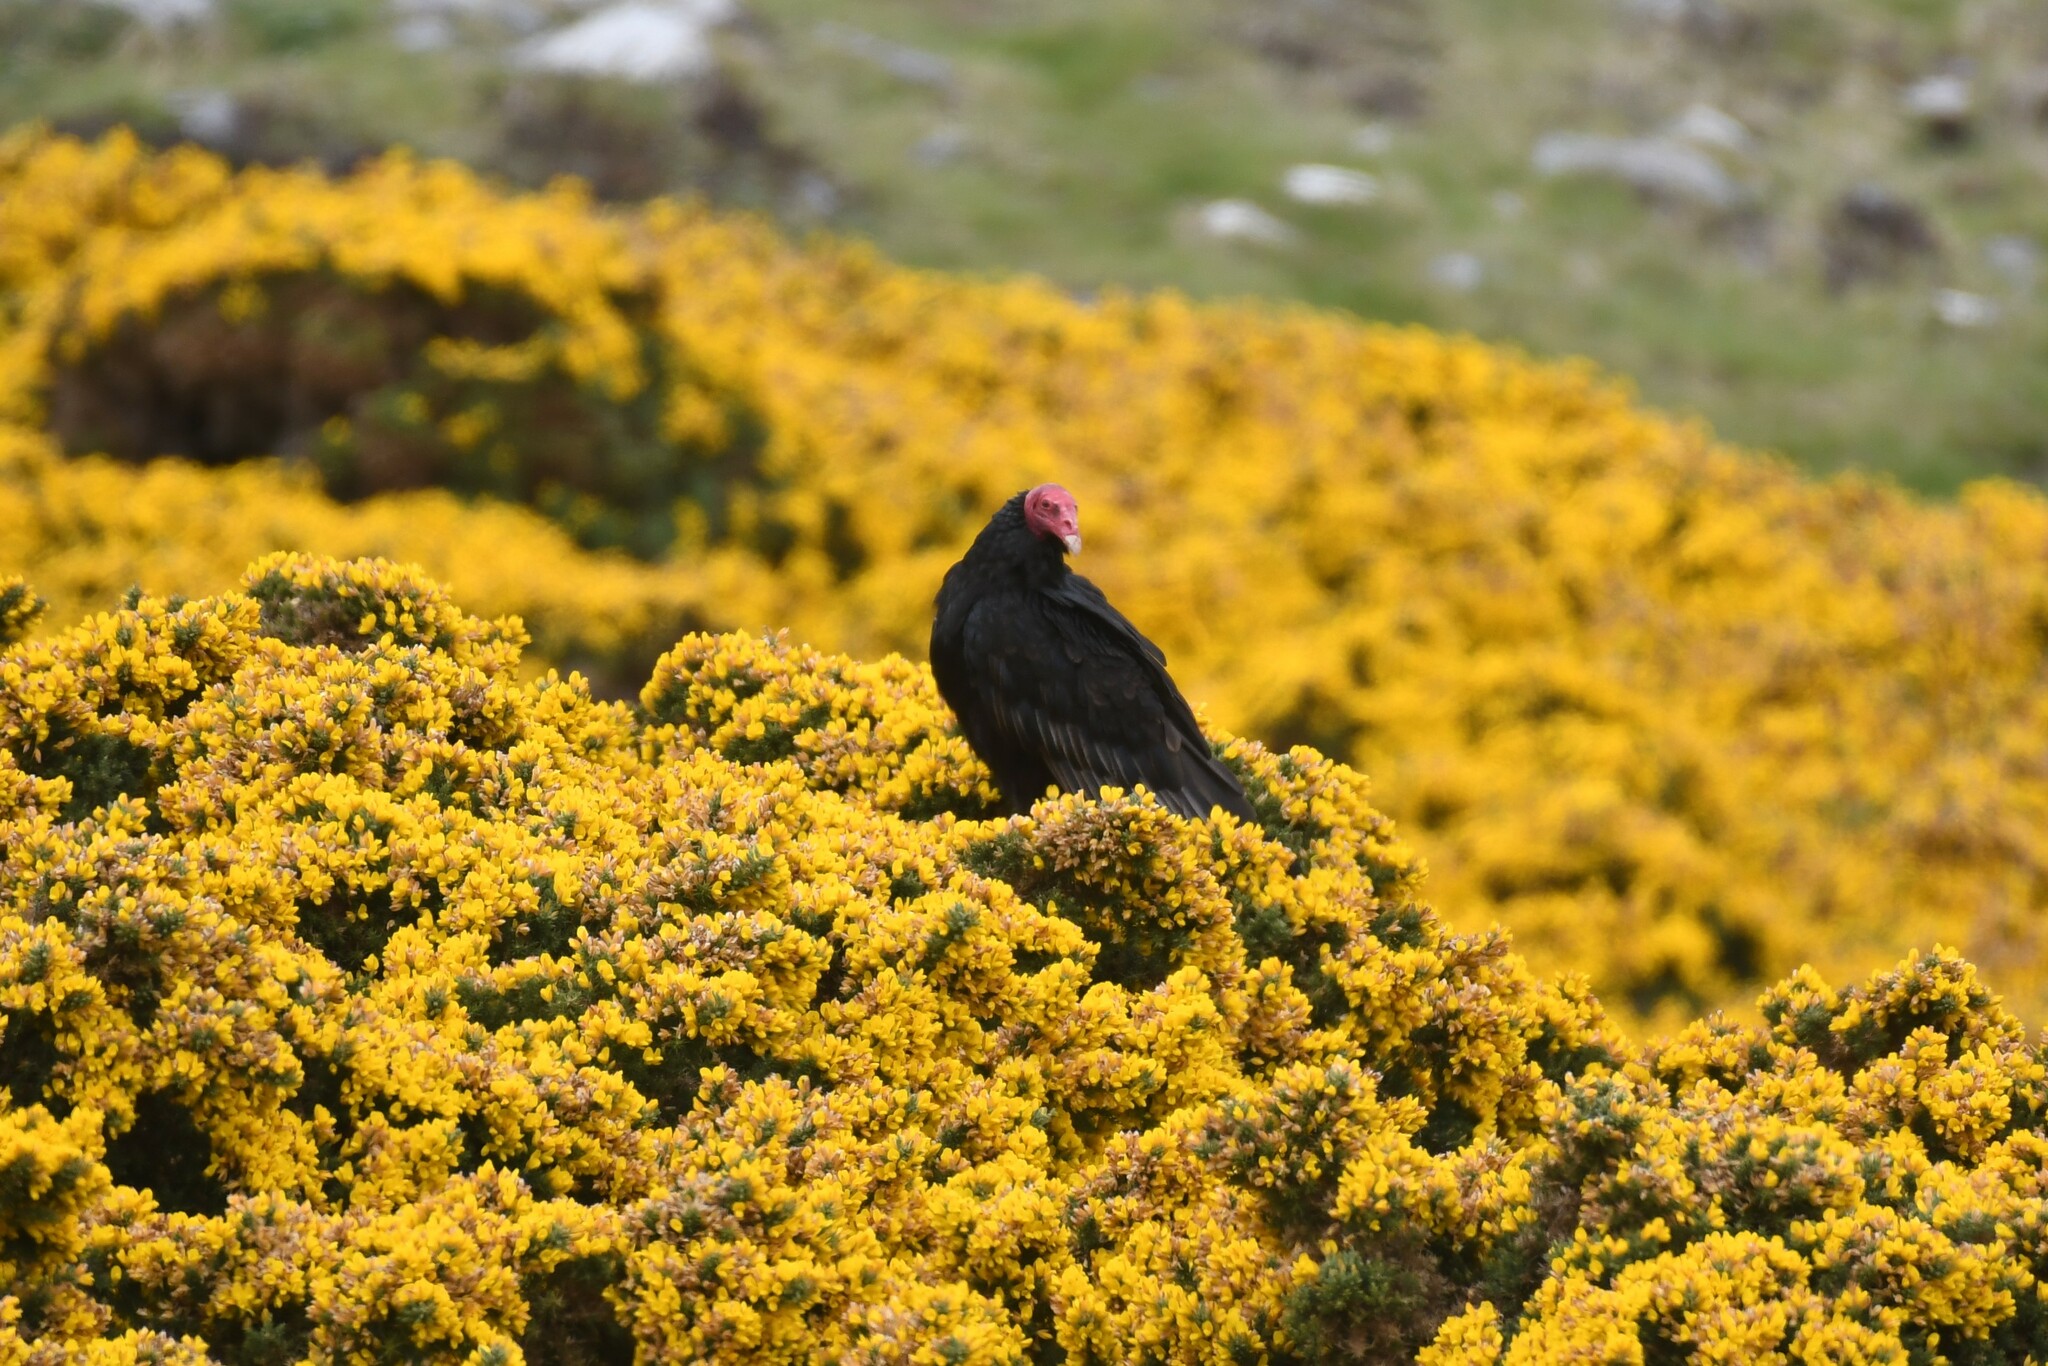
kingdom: Animalia
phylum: Chordata
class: Aves
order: Accipitriformes
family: Cathartidae
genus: Cathartes
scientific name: Cathartes aura
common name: Turkey vulture
